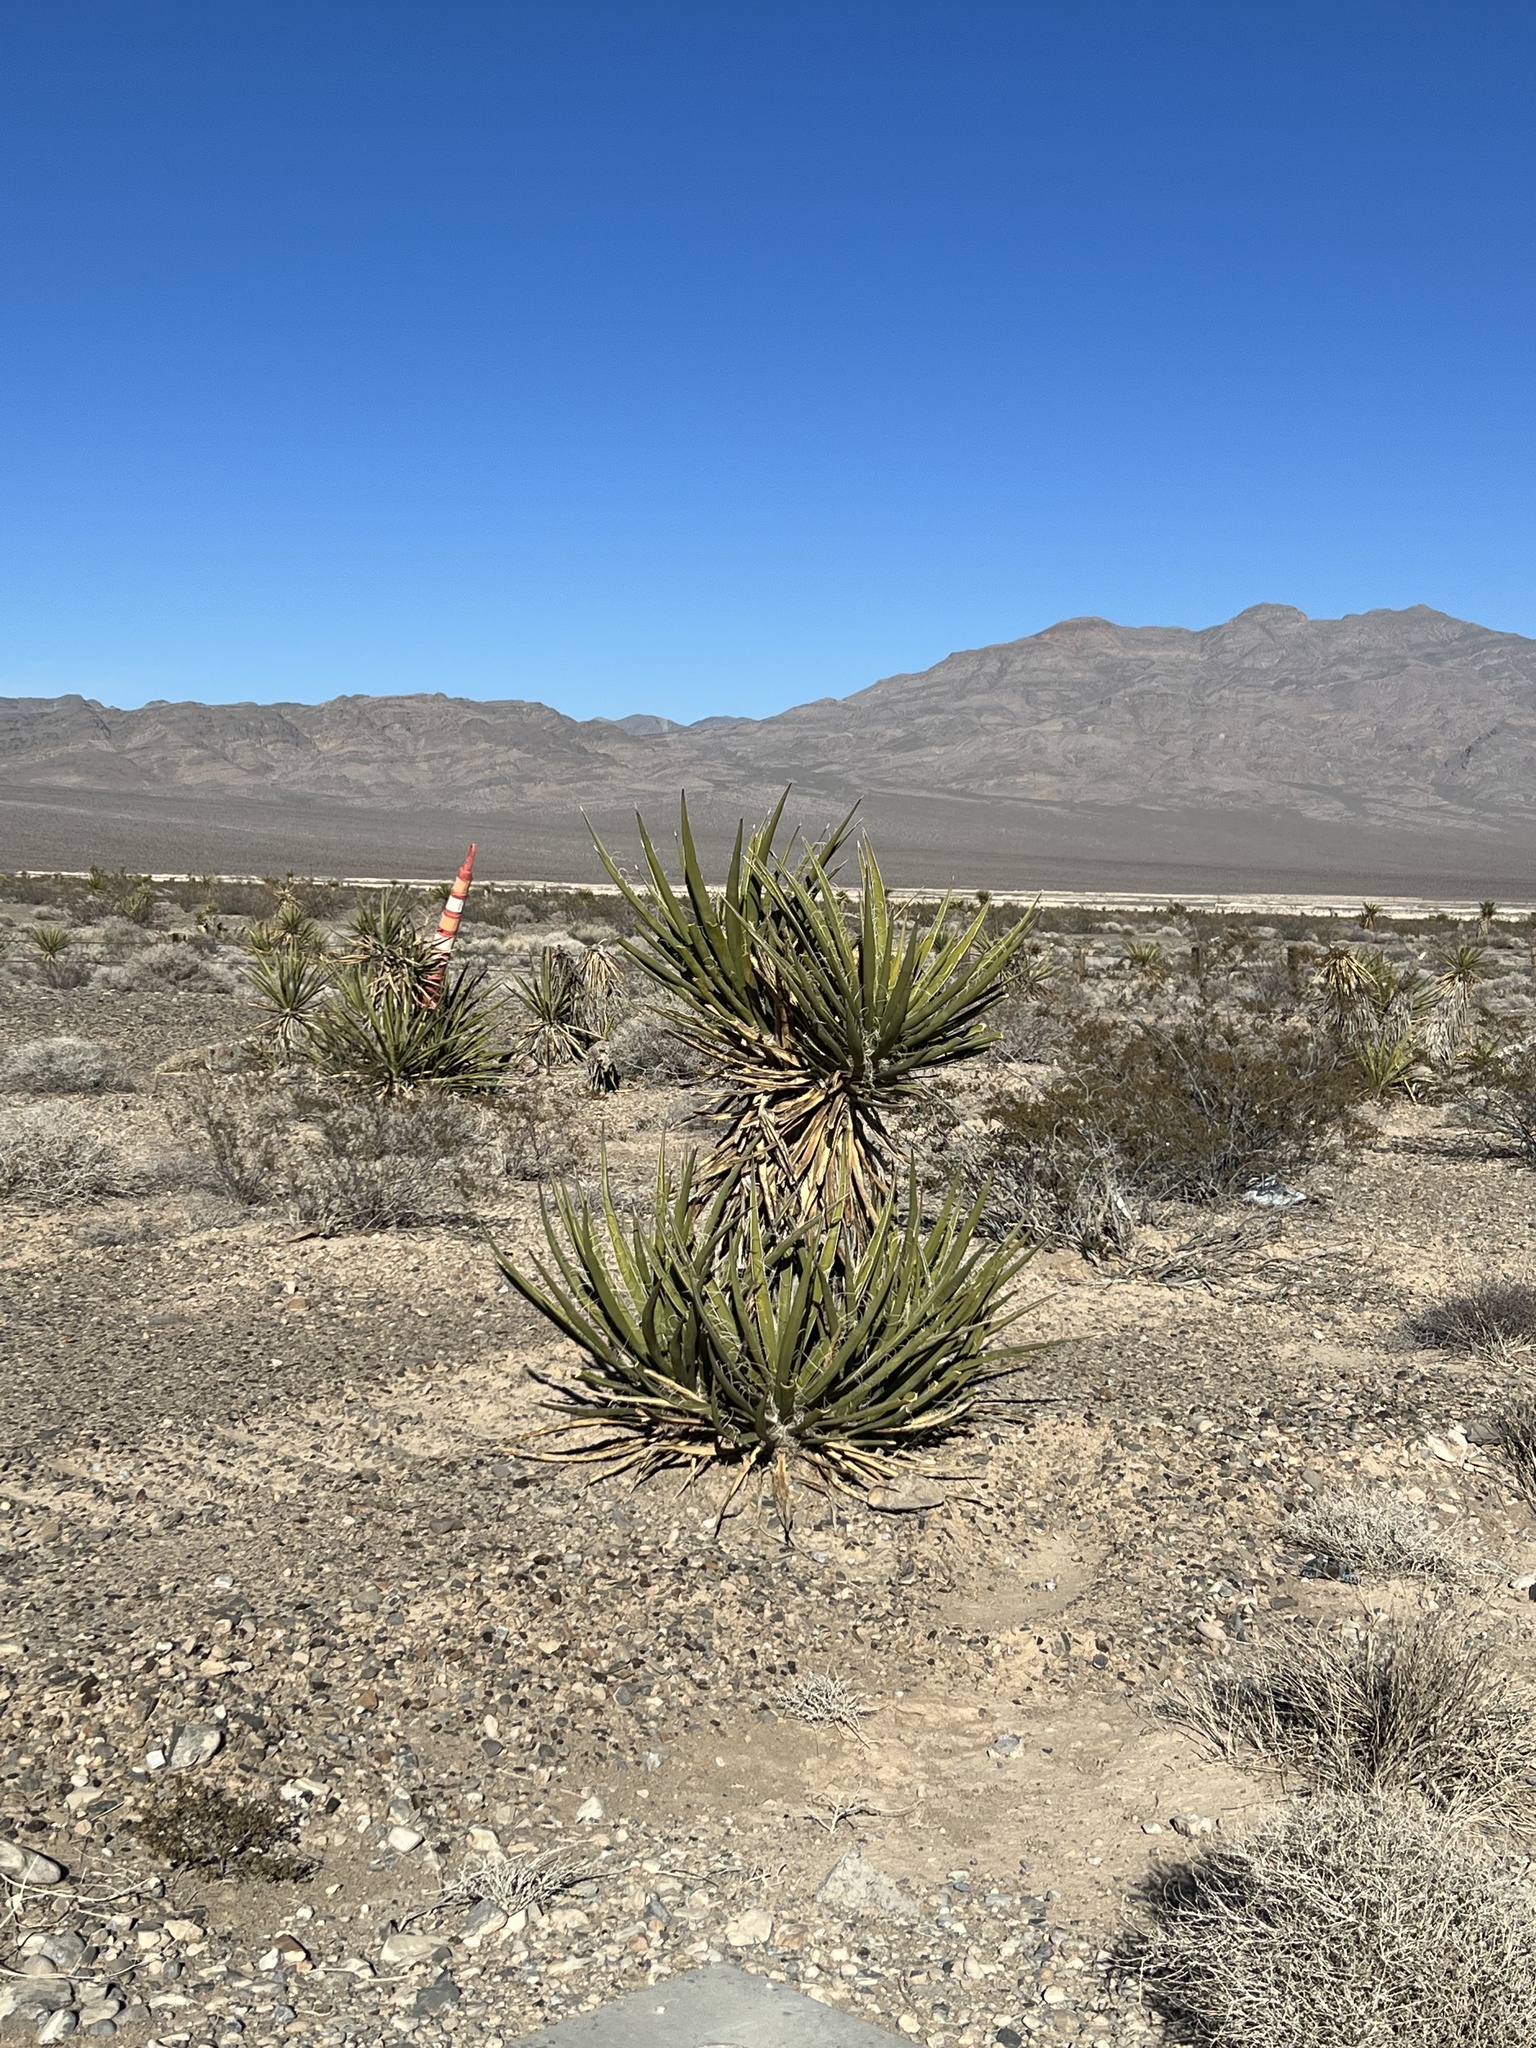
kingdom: Plantae
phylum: Tracheophyta
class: Liliopsida
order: Asparagales
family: Asparagaceae
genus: Yucca
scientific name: Yucca schidigera
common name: Mojave yucca
